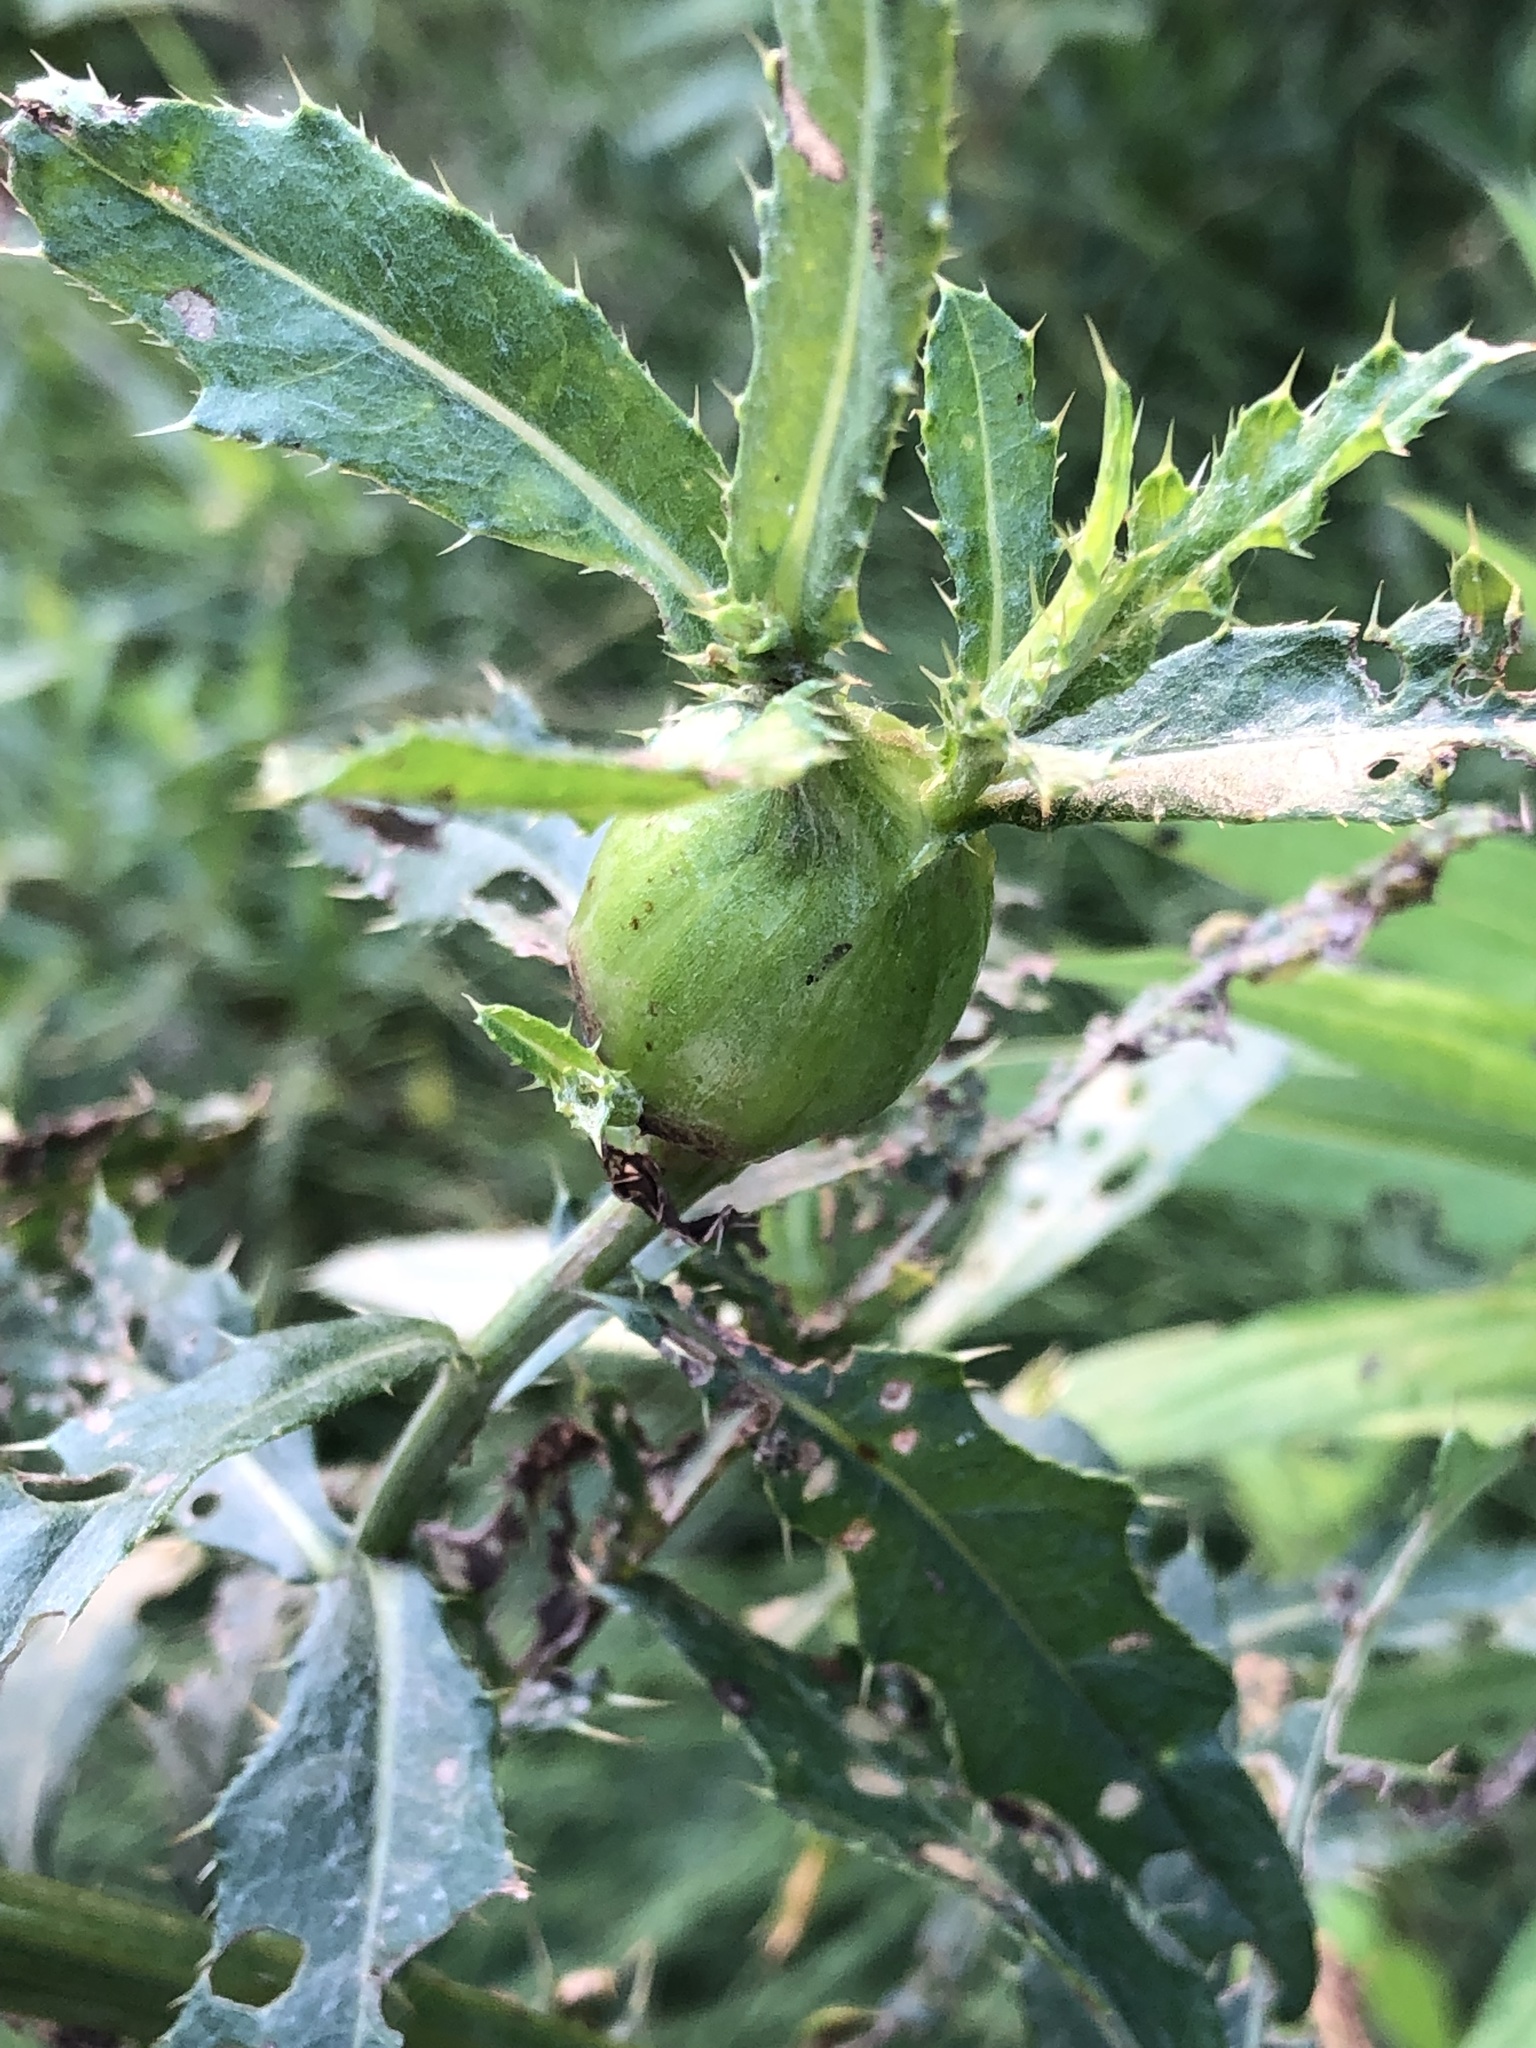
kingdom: Animalia
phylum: Arthropoda
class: Insecta
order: Diptera
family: Tephritidae
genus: Urophora
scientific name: Urophora cardui
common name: Fruit fly
